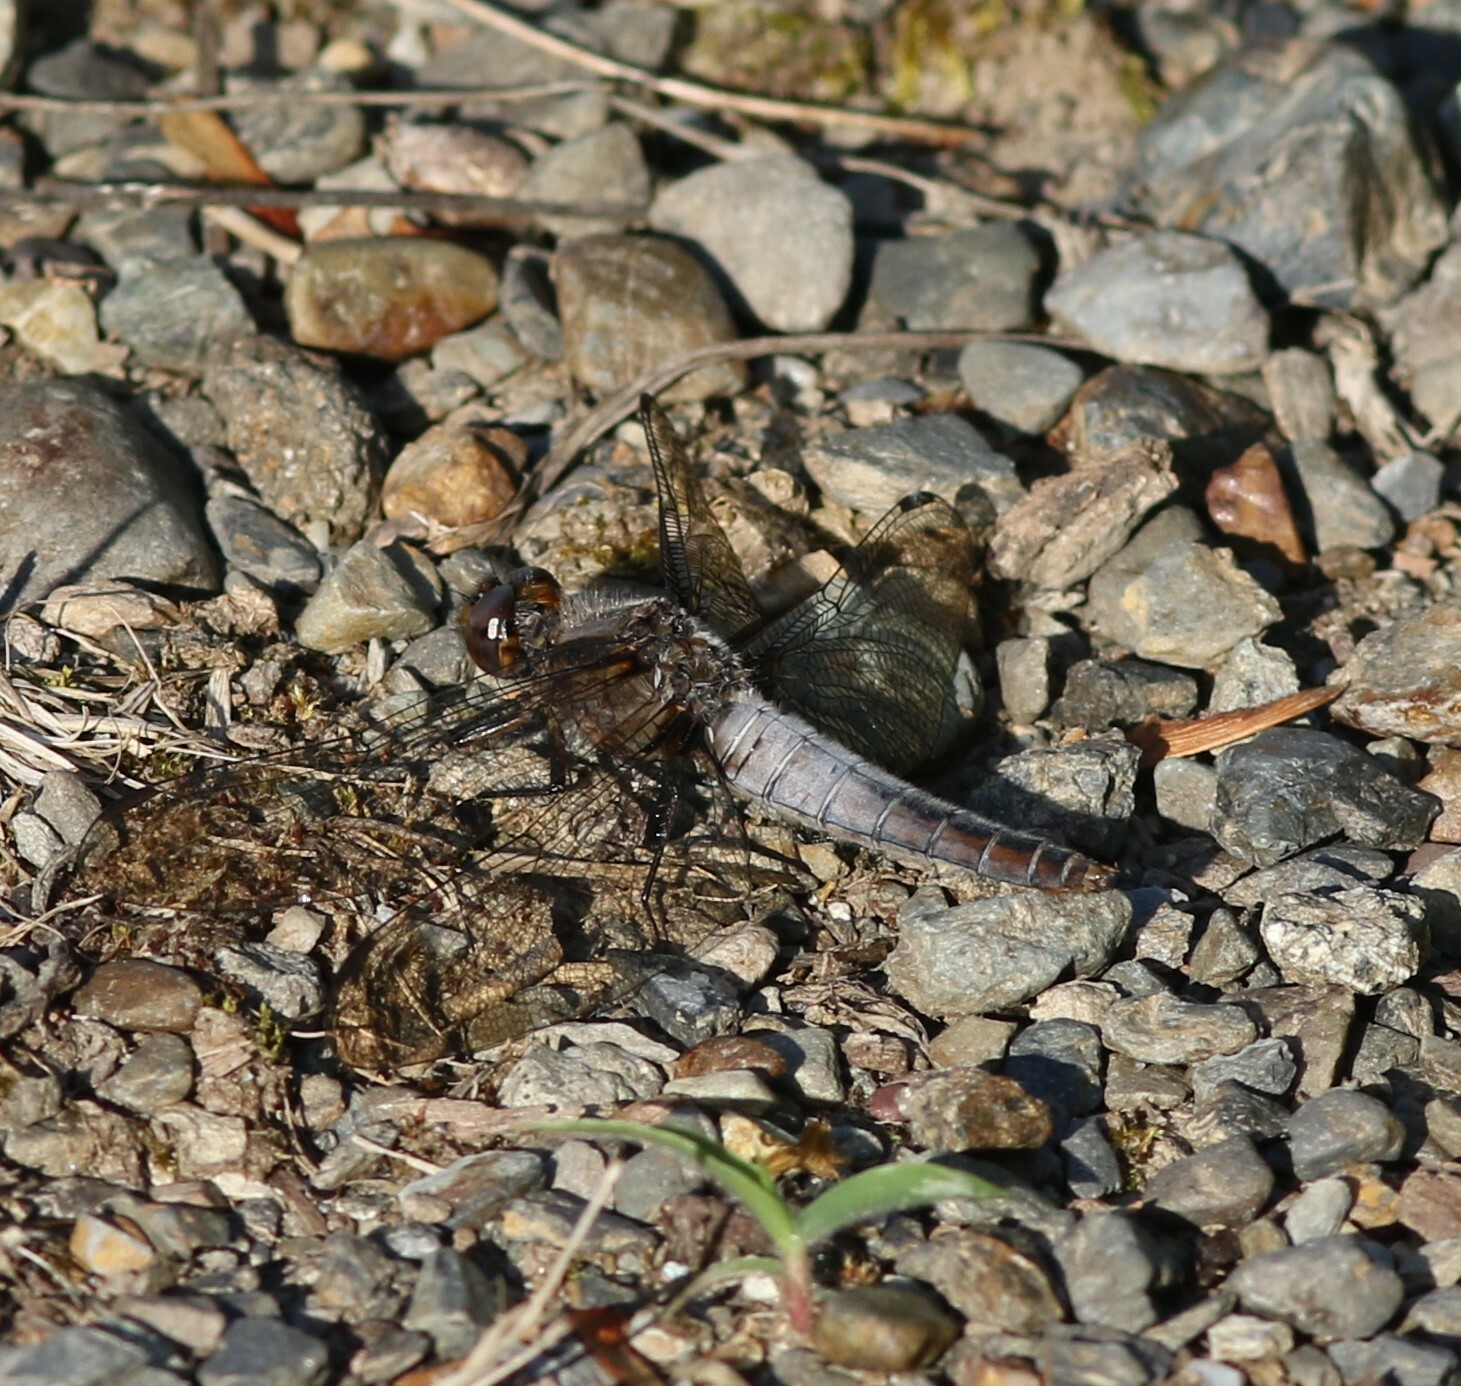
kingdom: Animalia
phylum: Arthropoda
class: Insecta
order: Odonata
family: Libellulidae
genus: Ladona
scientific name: Ladona julia
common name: Chalk-fronted corporal
